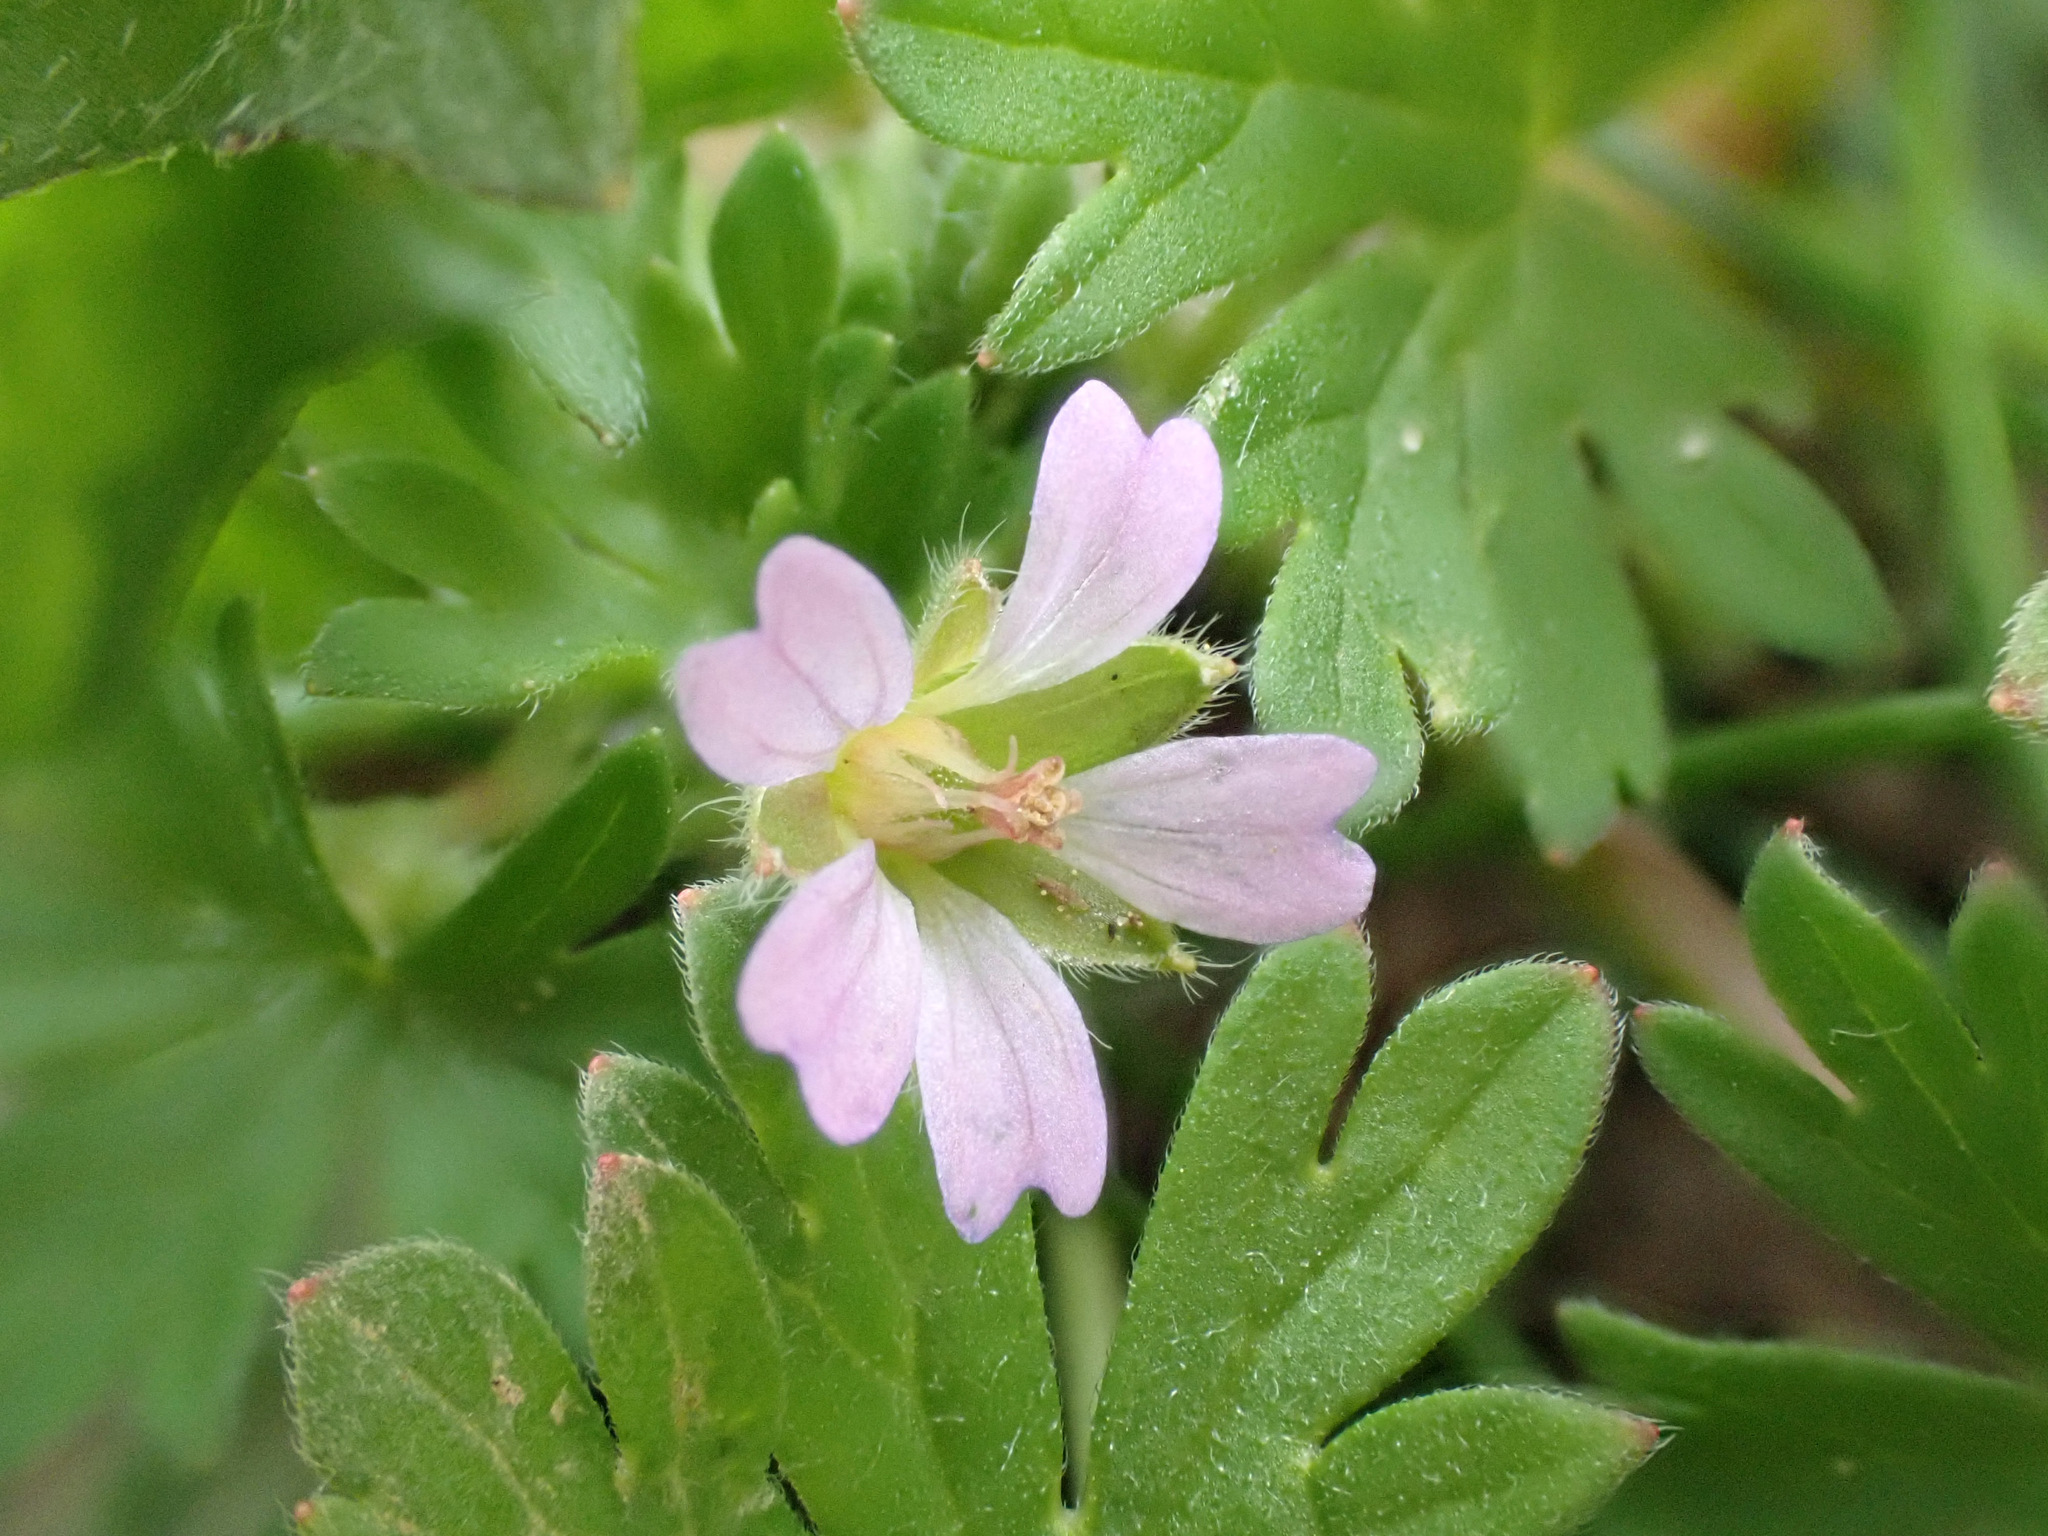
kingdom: Plantae
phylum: Tracheophyta
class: Magnoliopsida
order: Geraniales
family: Geraniaceae
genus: Geranium
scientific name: Geranium pusillum
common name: Small geranium
